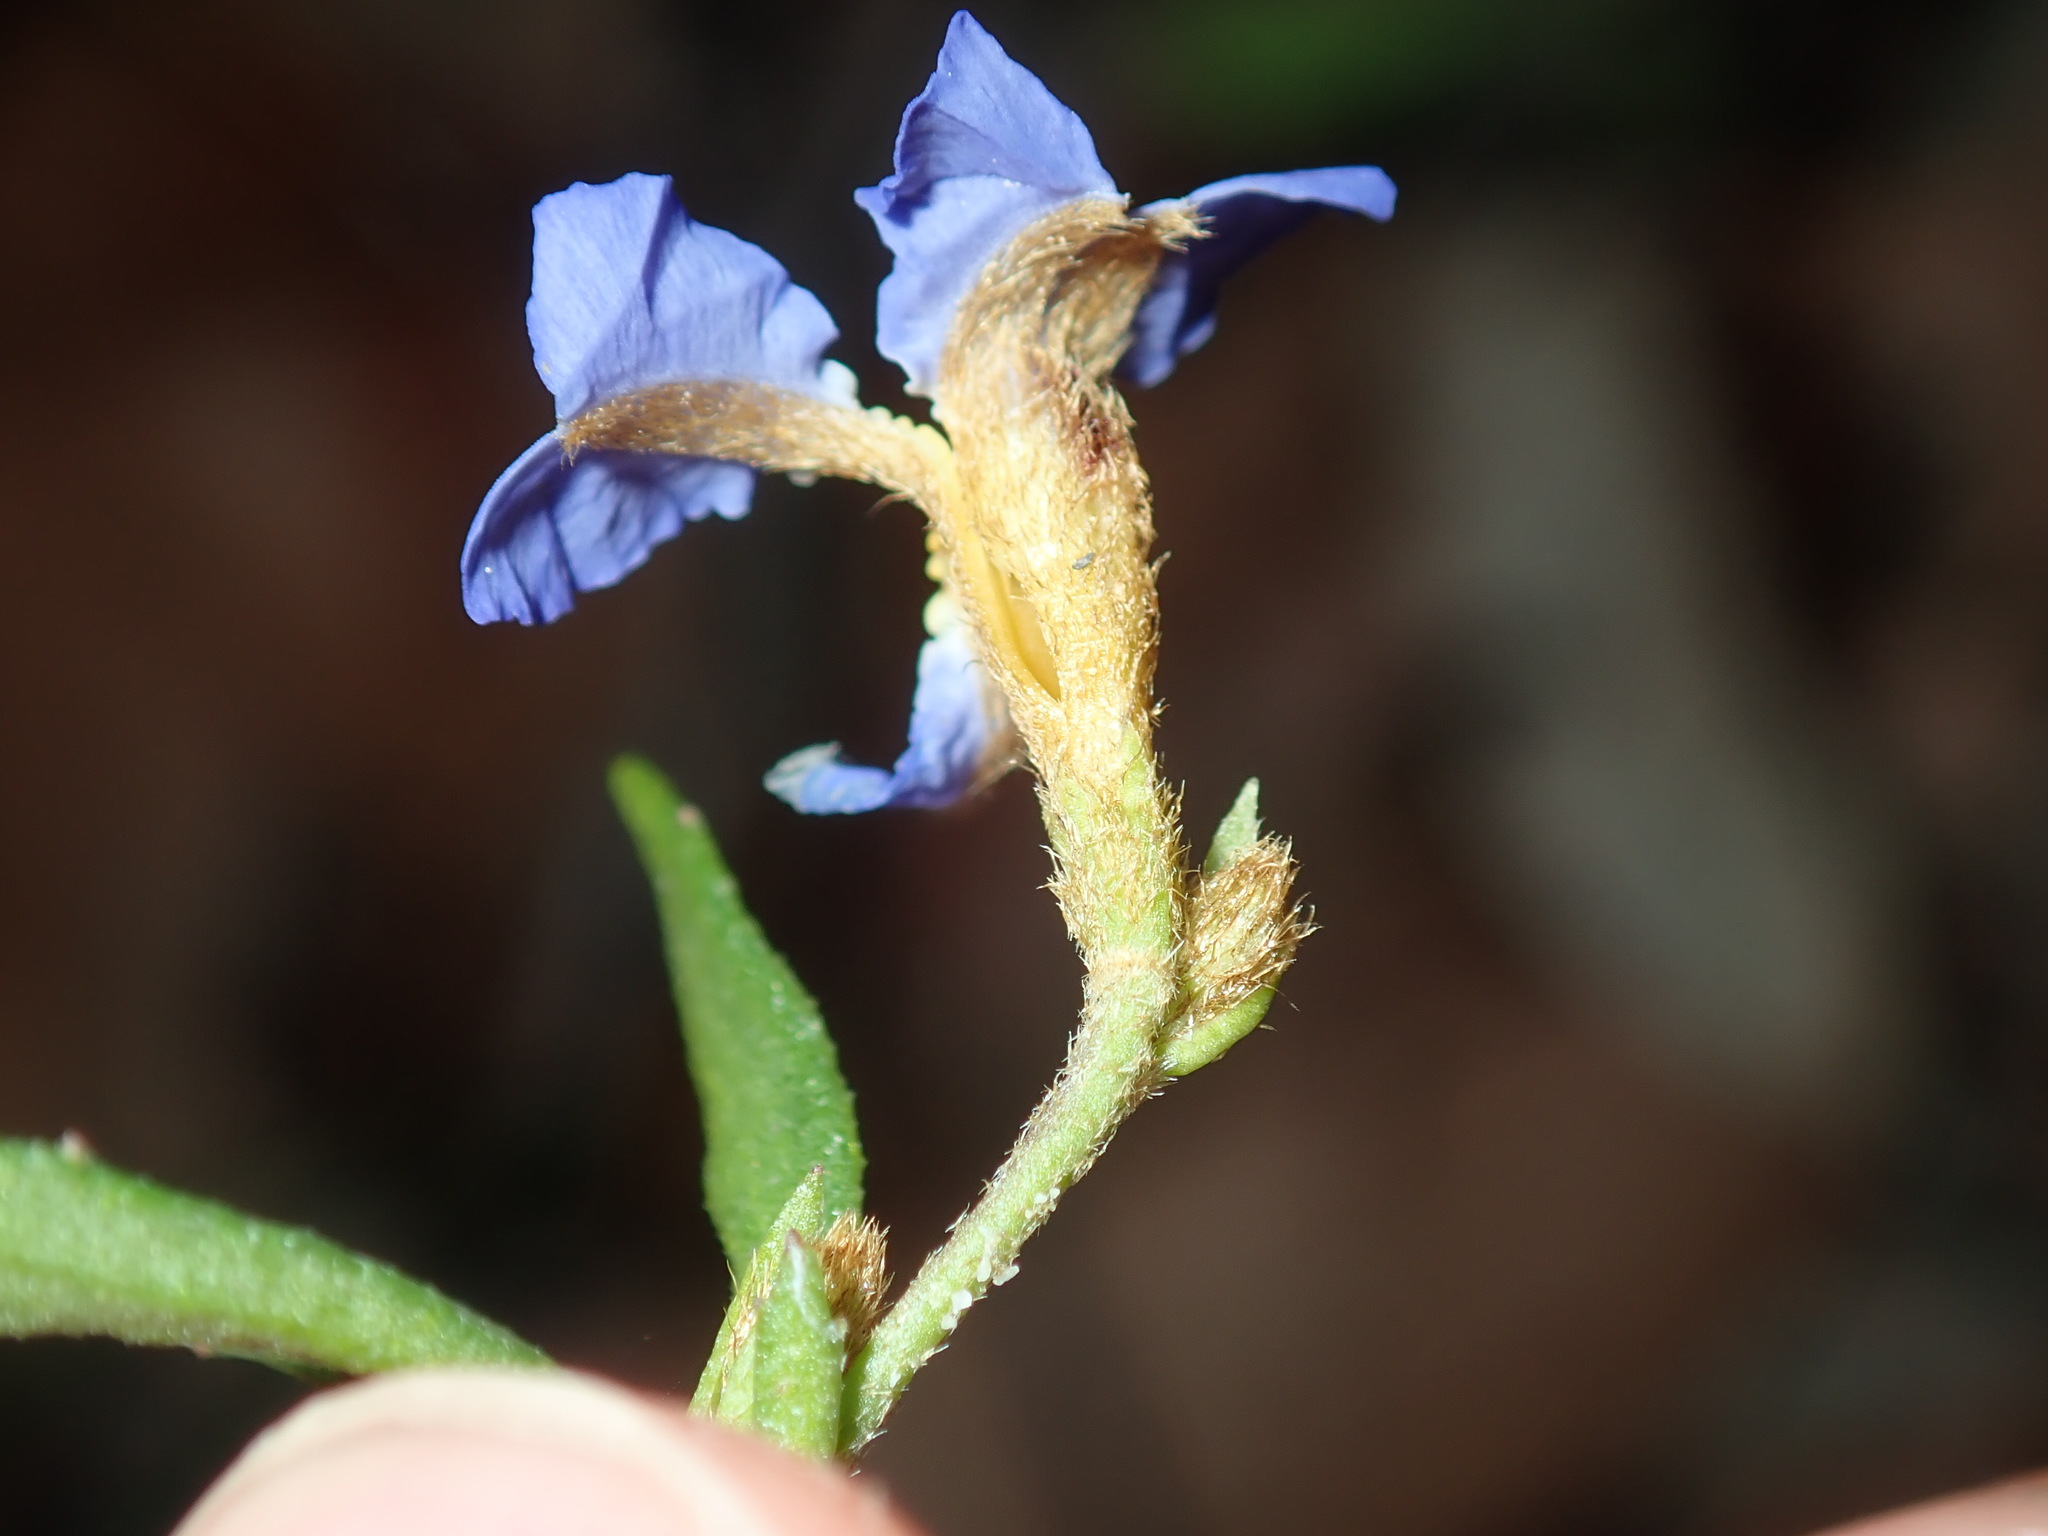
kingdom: Plantae
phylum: Tracheophyta
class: Magnoliopsida
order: Asterales
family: Goodeniaceae
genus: Dampiera
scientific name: Dampiera stricta
